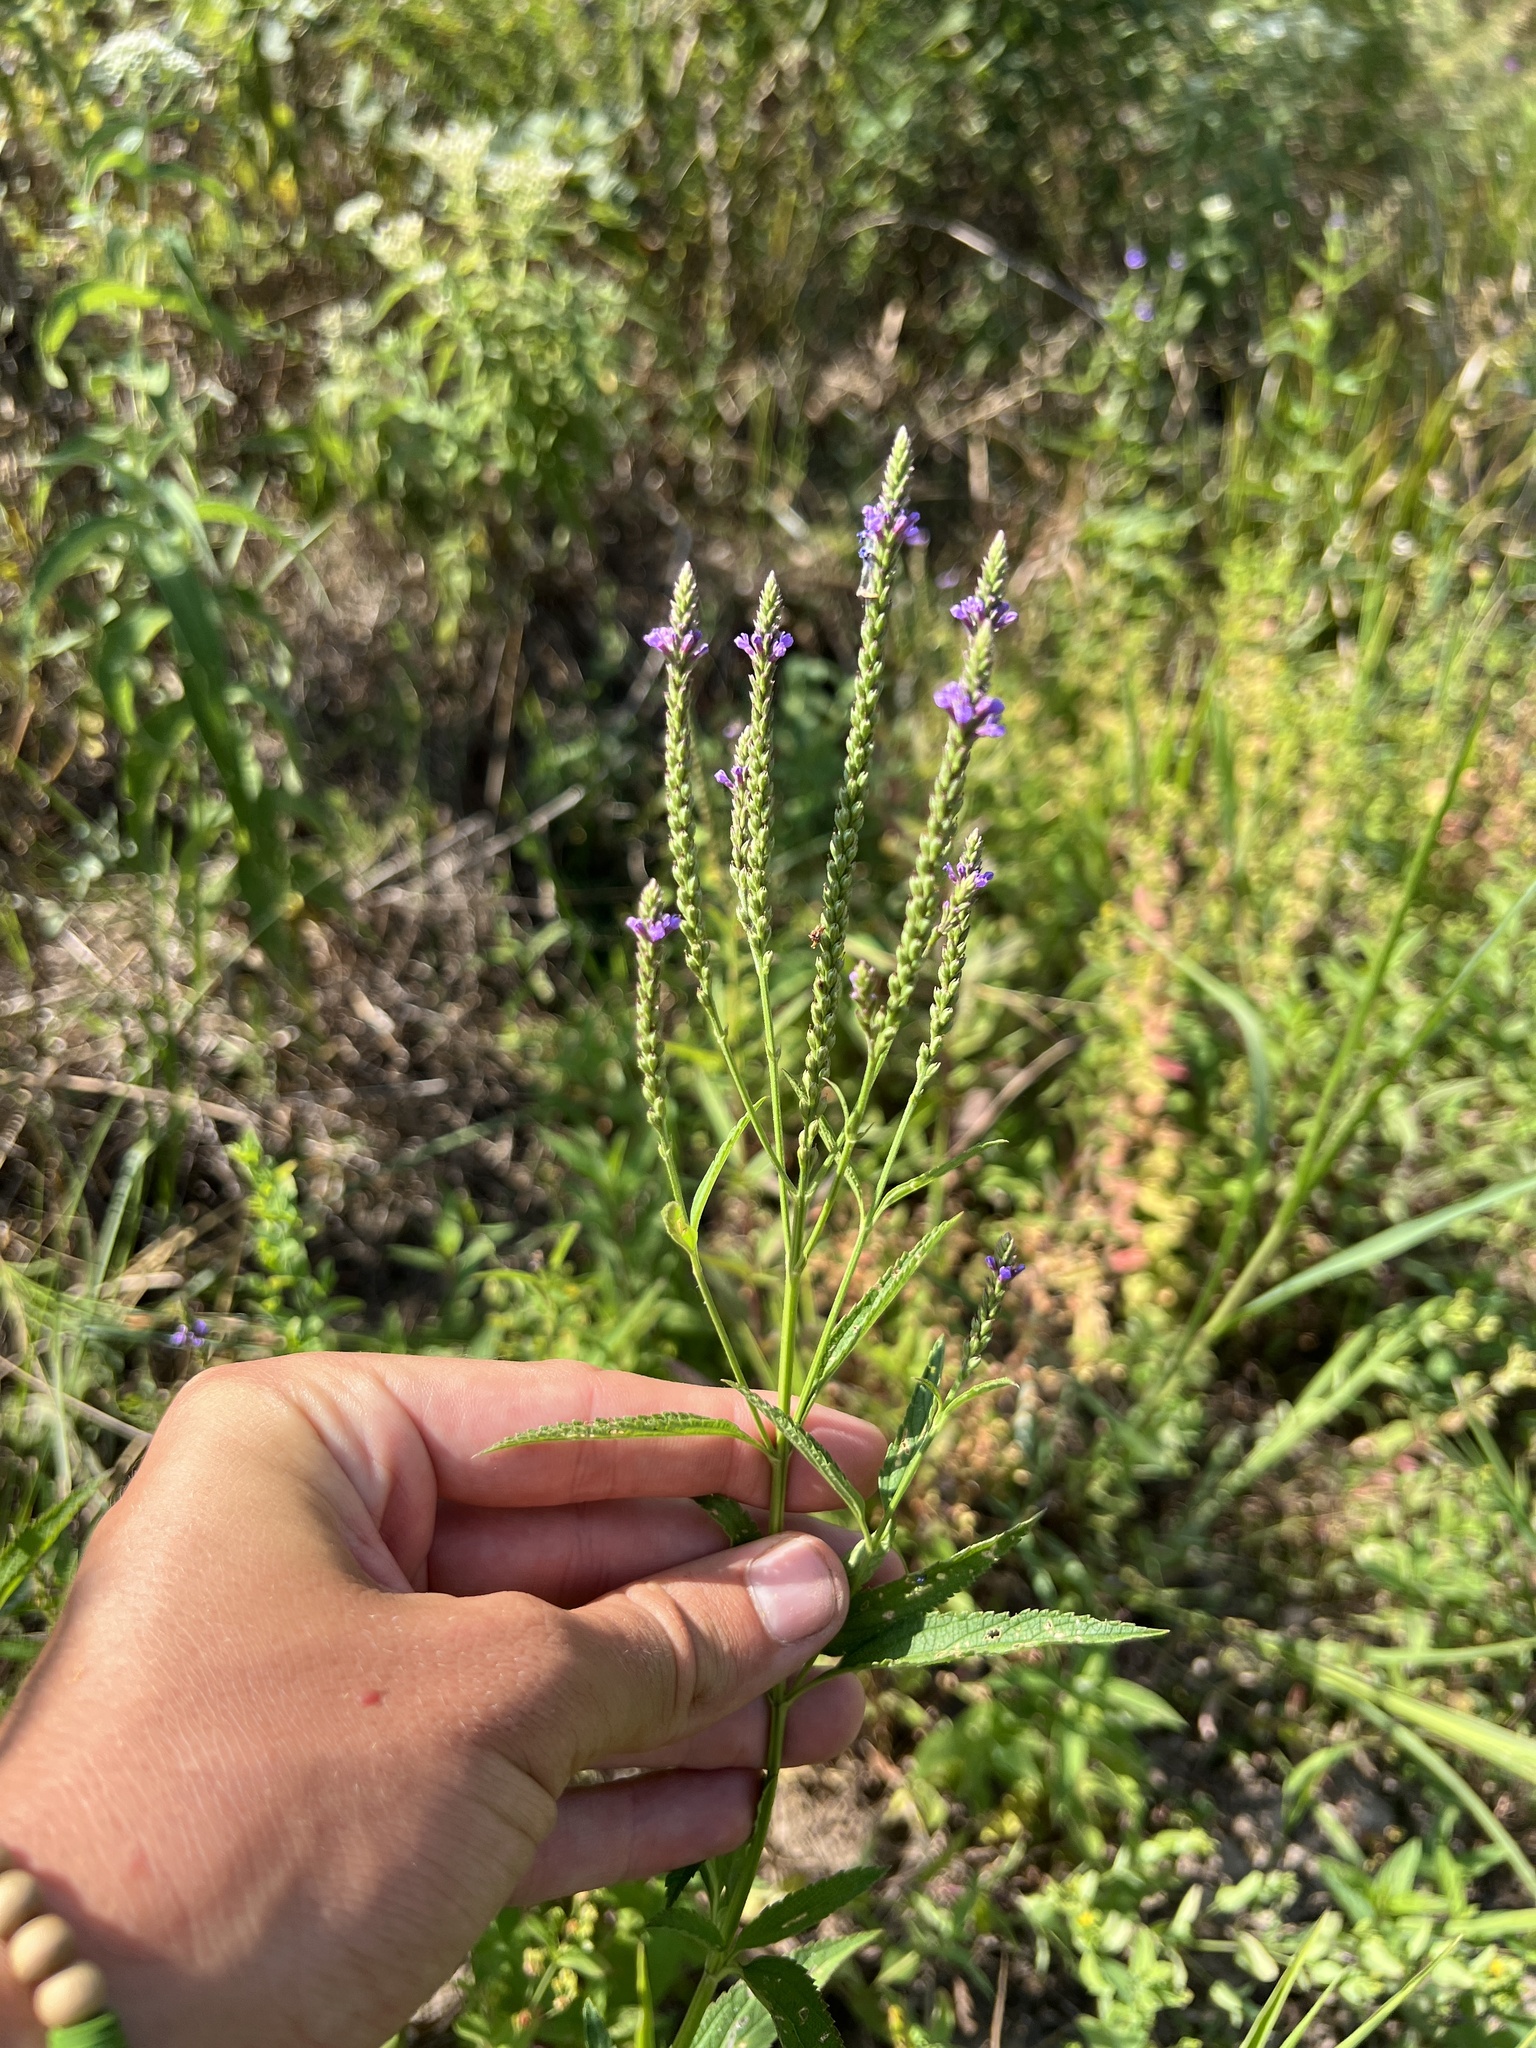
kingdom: Plantae
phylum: Tracheophyta
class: Magnoliopsida
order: Lamiales
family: Verbenaceae
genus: Verbena
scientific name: Verbena hastata
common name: American blue vervain
